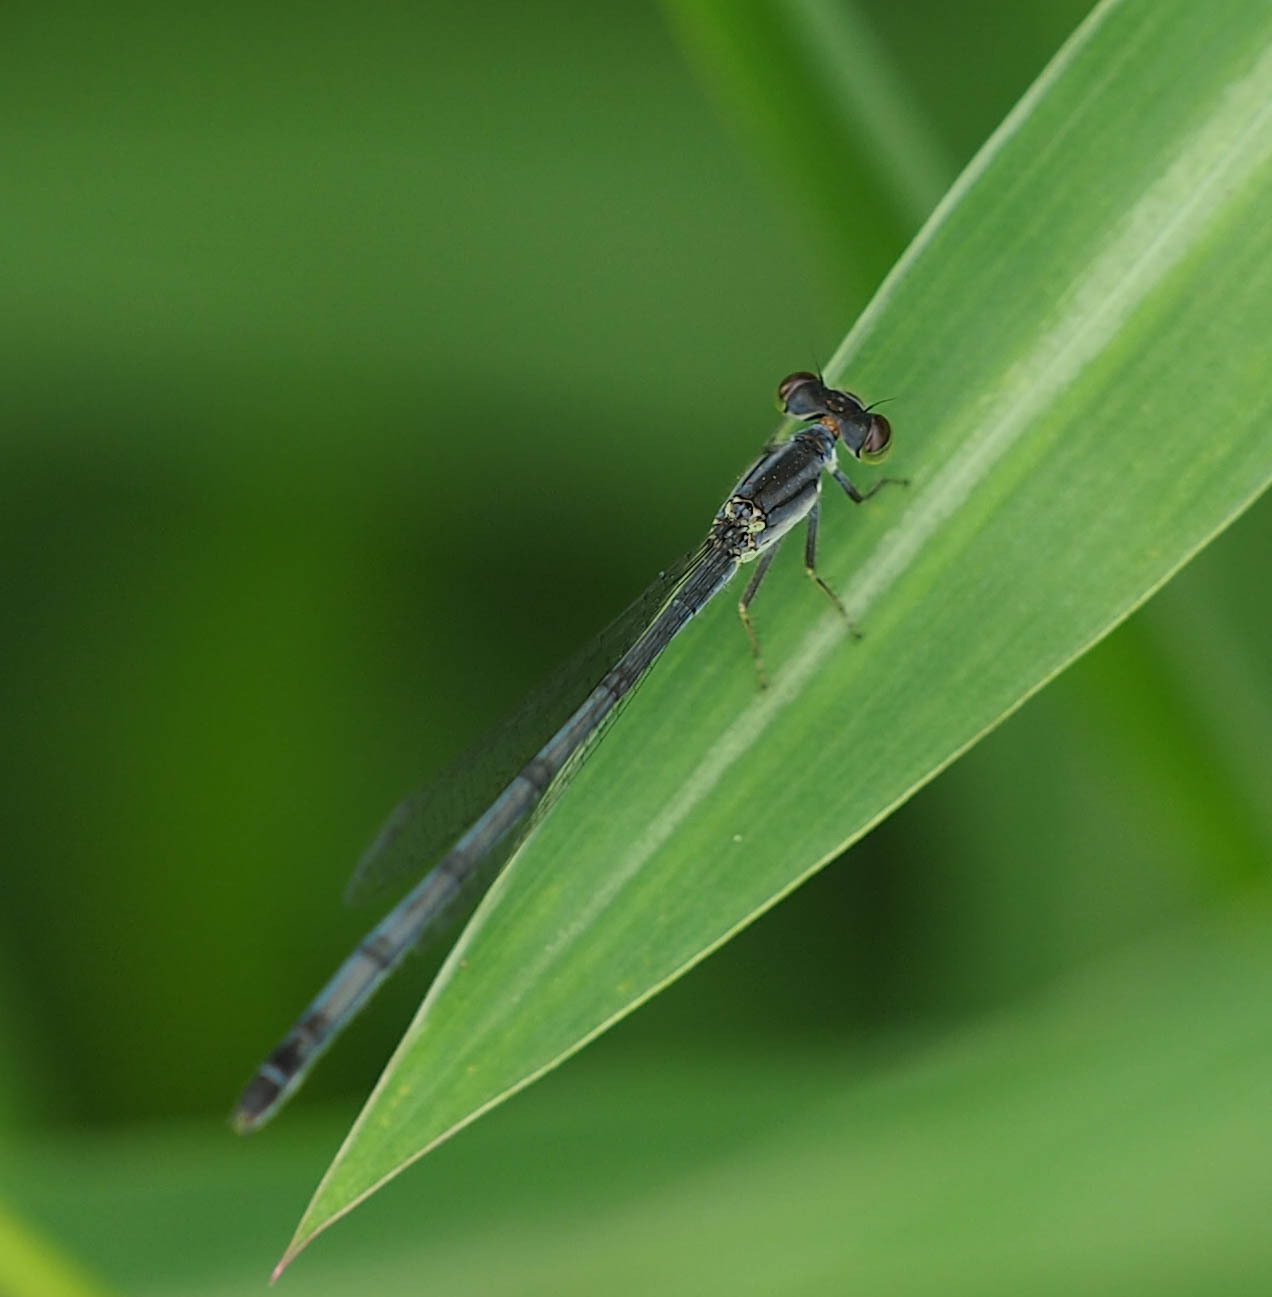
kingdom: Animalia
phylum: Arthropoda
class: Insecta
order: Odonata
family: Coenagrionidae
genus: Ischnura
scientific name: Ischnura verticalis
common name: Eastern forktail
